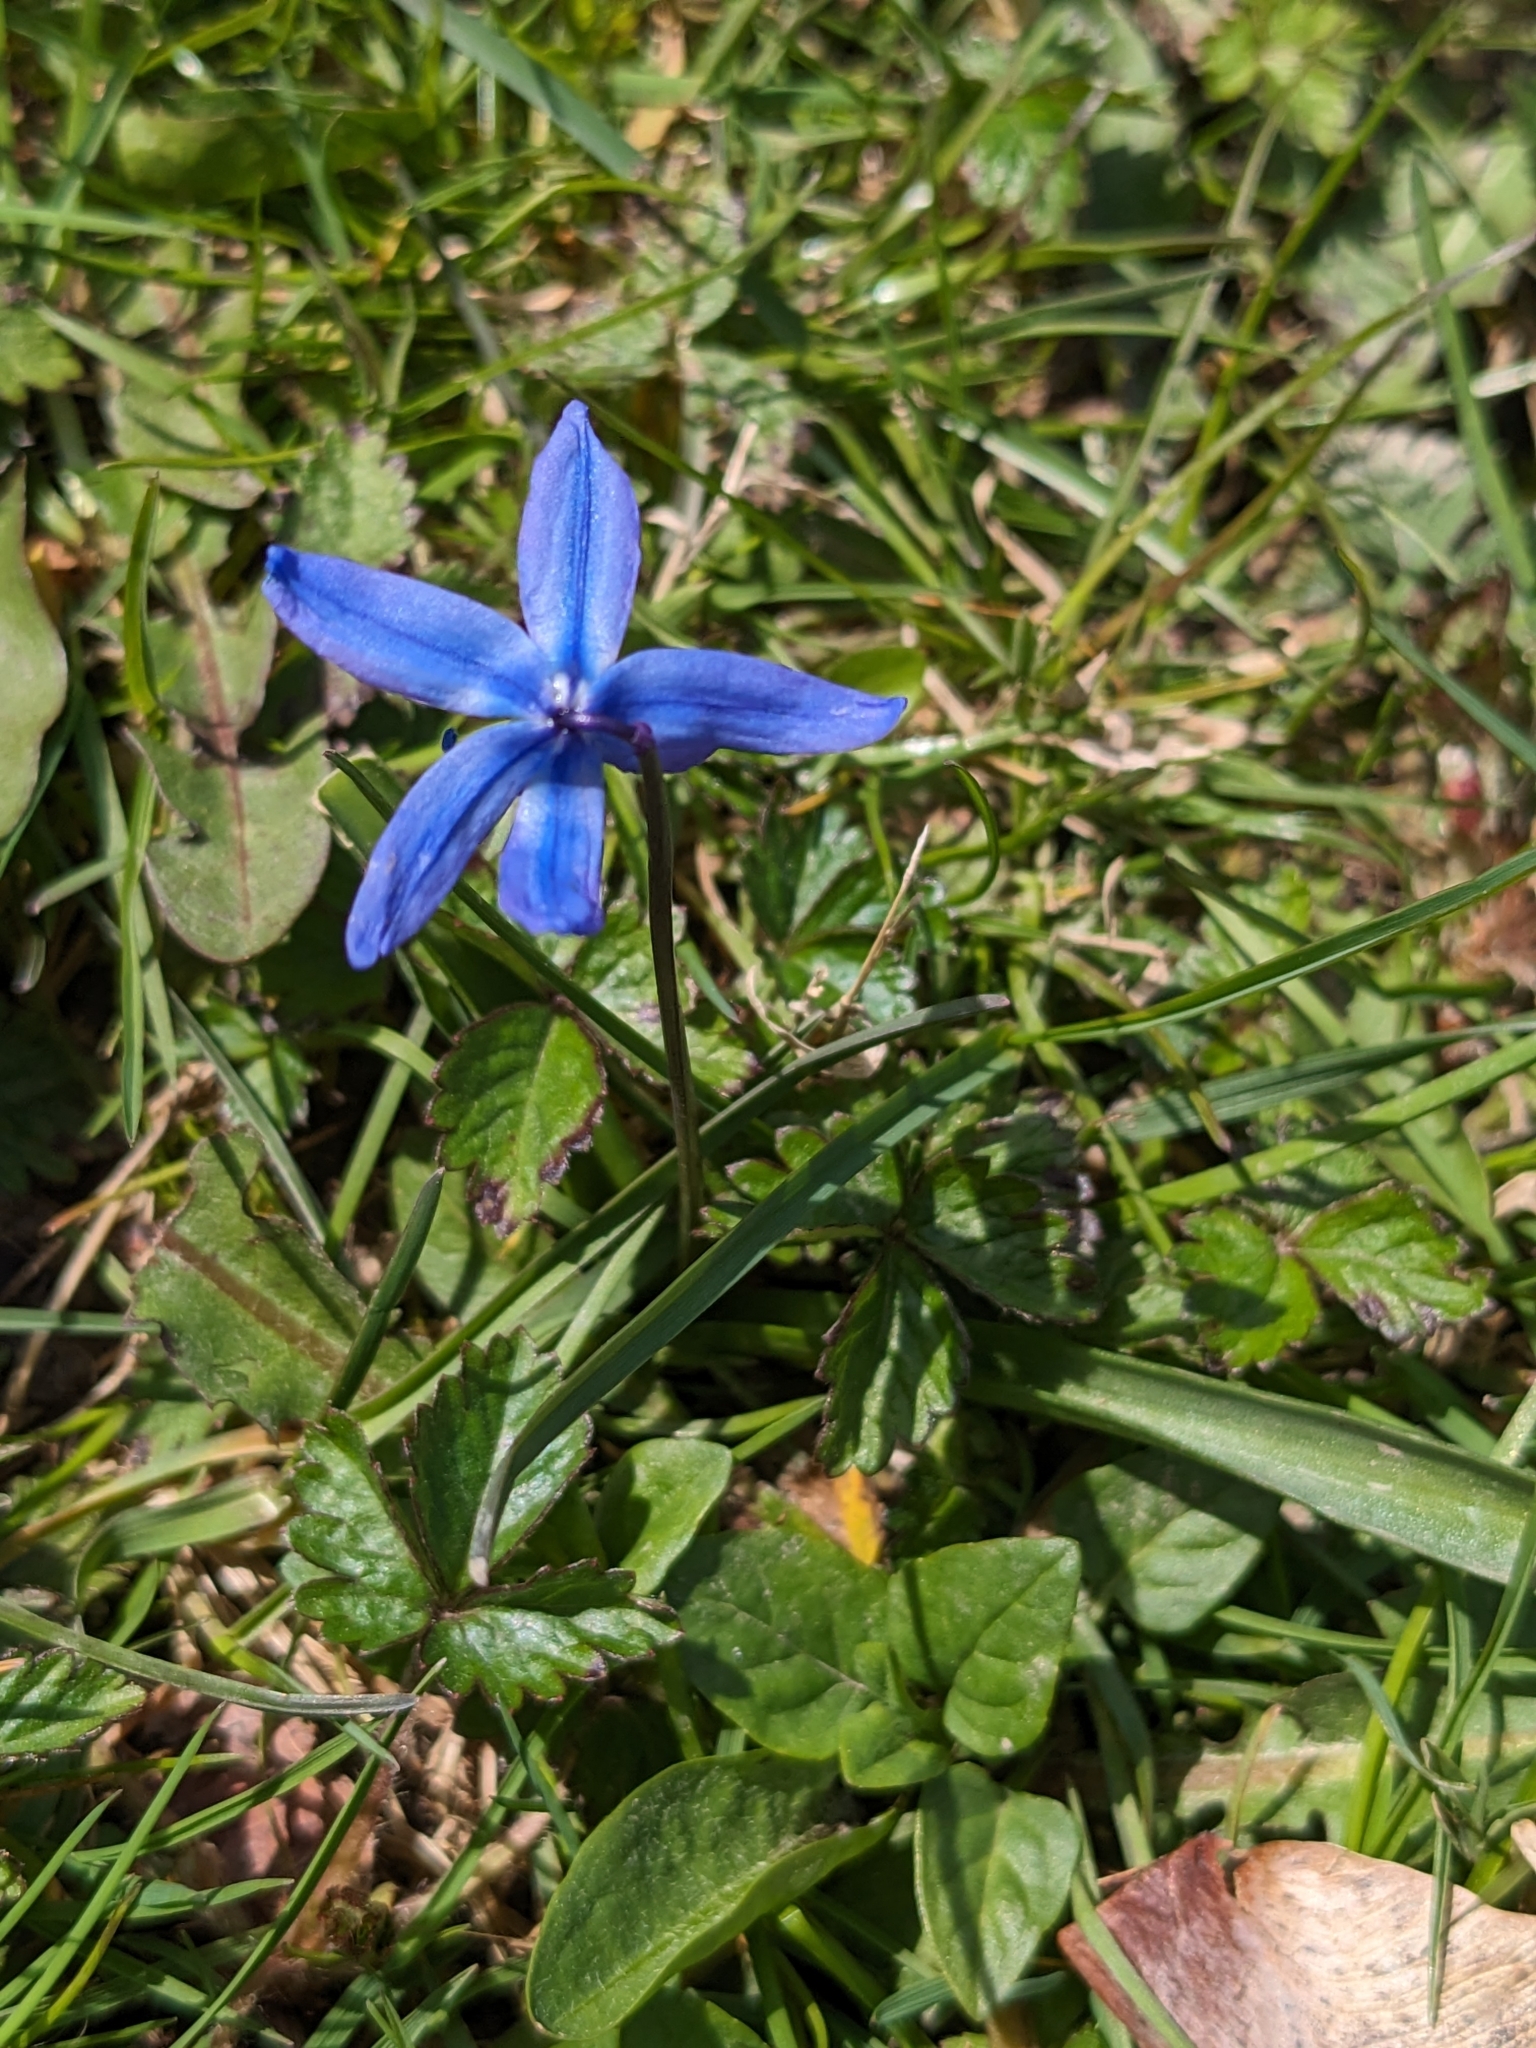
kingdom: Plantae
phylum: Tracheophyta
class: Liliopsida
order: Asparagales
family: Asparagaceae
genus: Scilla
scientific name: Scilla siberica
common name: Siberian squill
